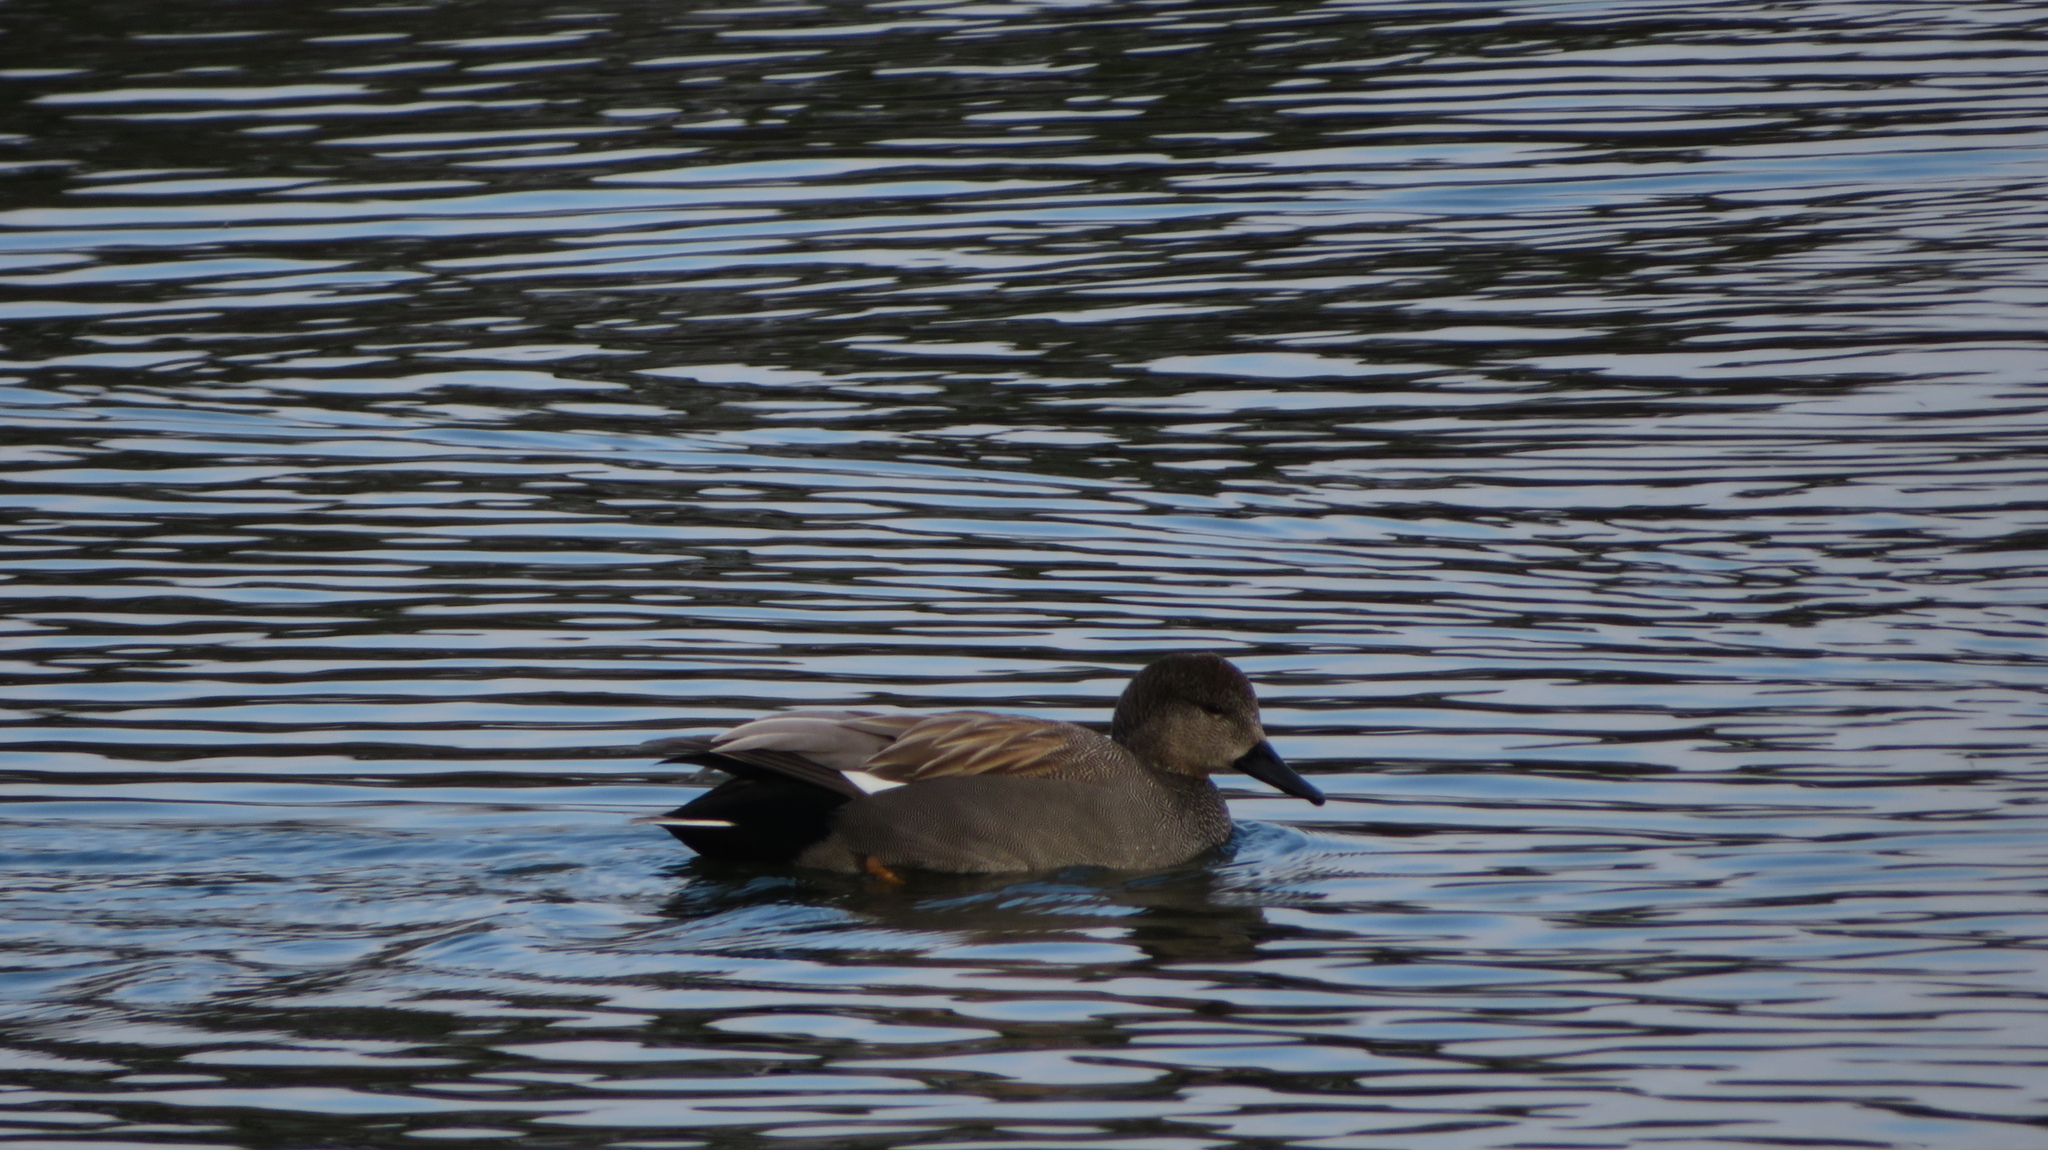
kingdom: Animalia
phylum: Chordata
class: Aves
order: Anseriformes
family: Anatidae
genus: Mareca
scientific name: Mareca strepera
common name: Gadwall
